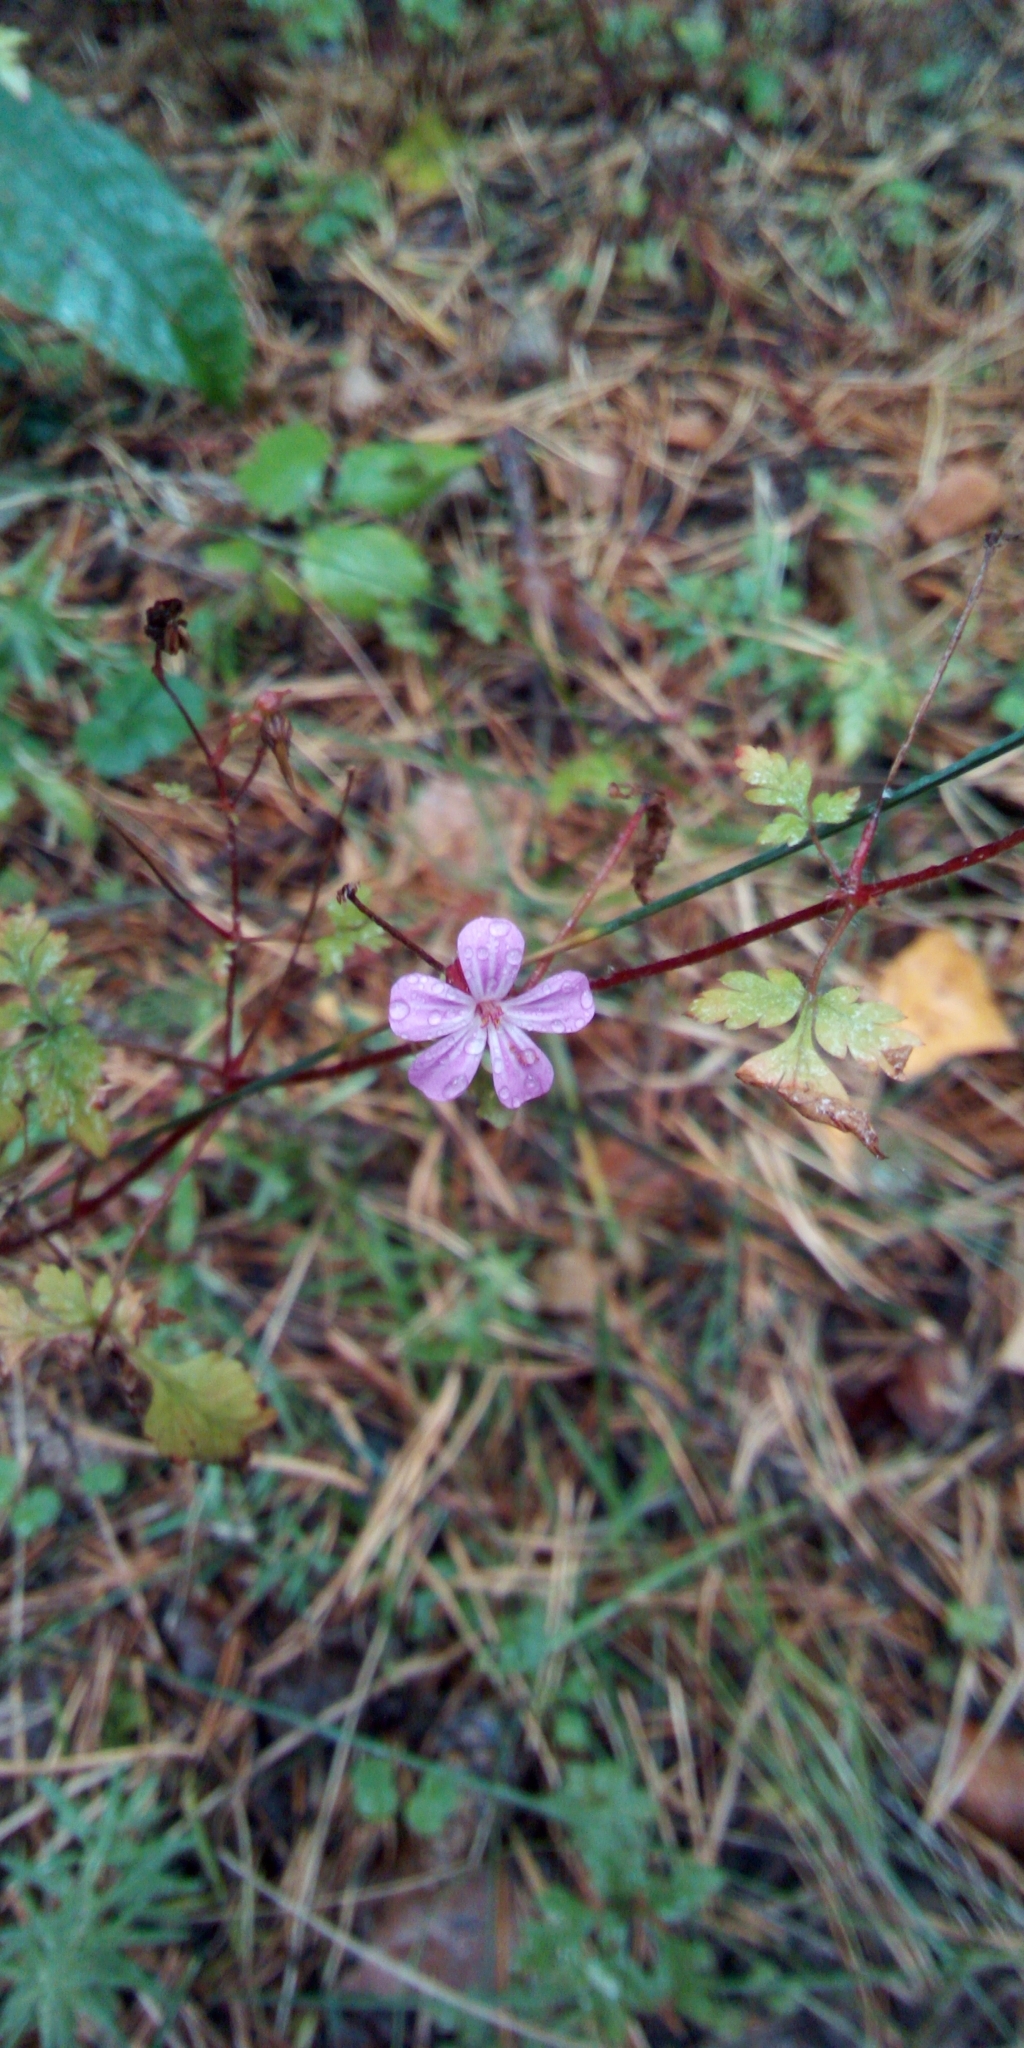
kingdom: Plantae
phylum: Tracheophyta
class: Magnoliopsida
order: Geraniales
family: Geraniaceae
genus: Geranium
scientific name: Geranium robertianum
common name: Herb-robert
